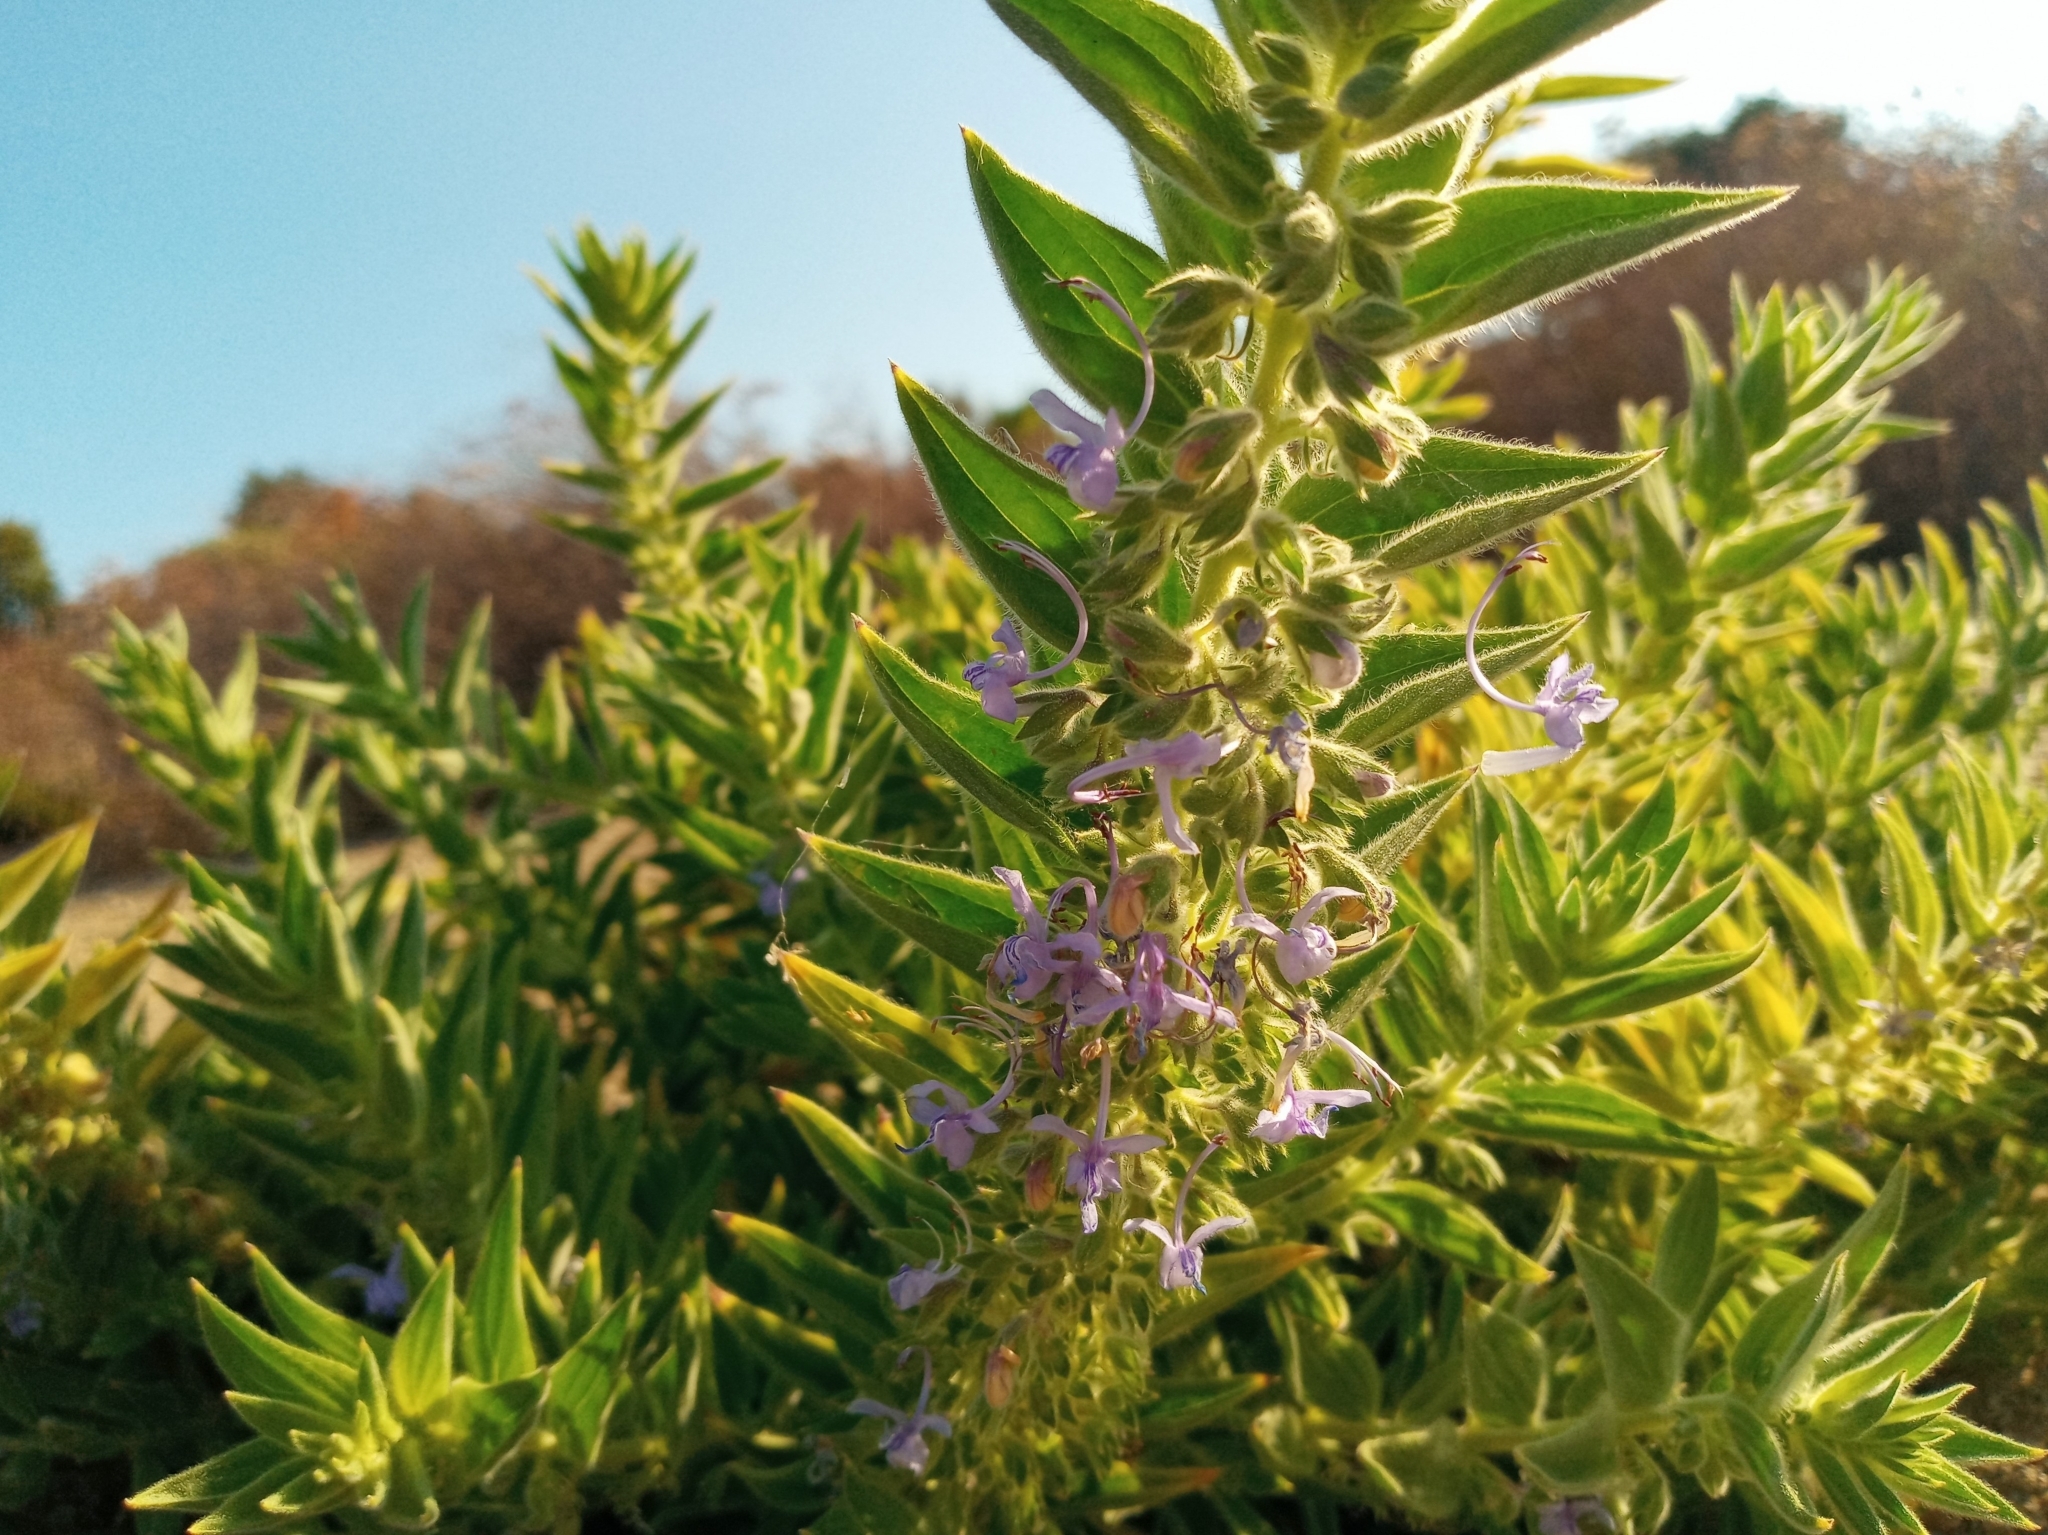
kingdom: Plantae
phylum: Tracheophyta
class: Magnoliopsida
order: Lamiales
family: Lamiaceae
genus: Trichostema
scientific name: Trichostema lanceolatum
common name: Vinegar-weed
